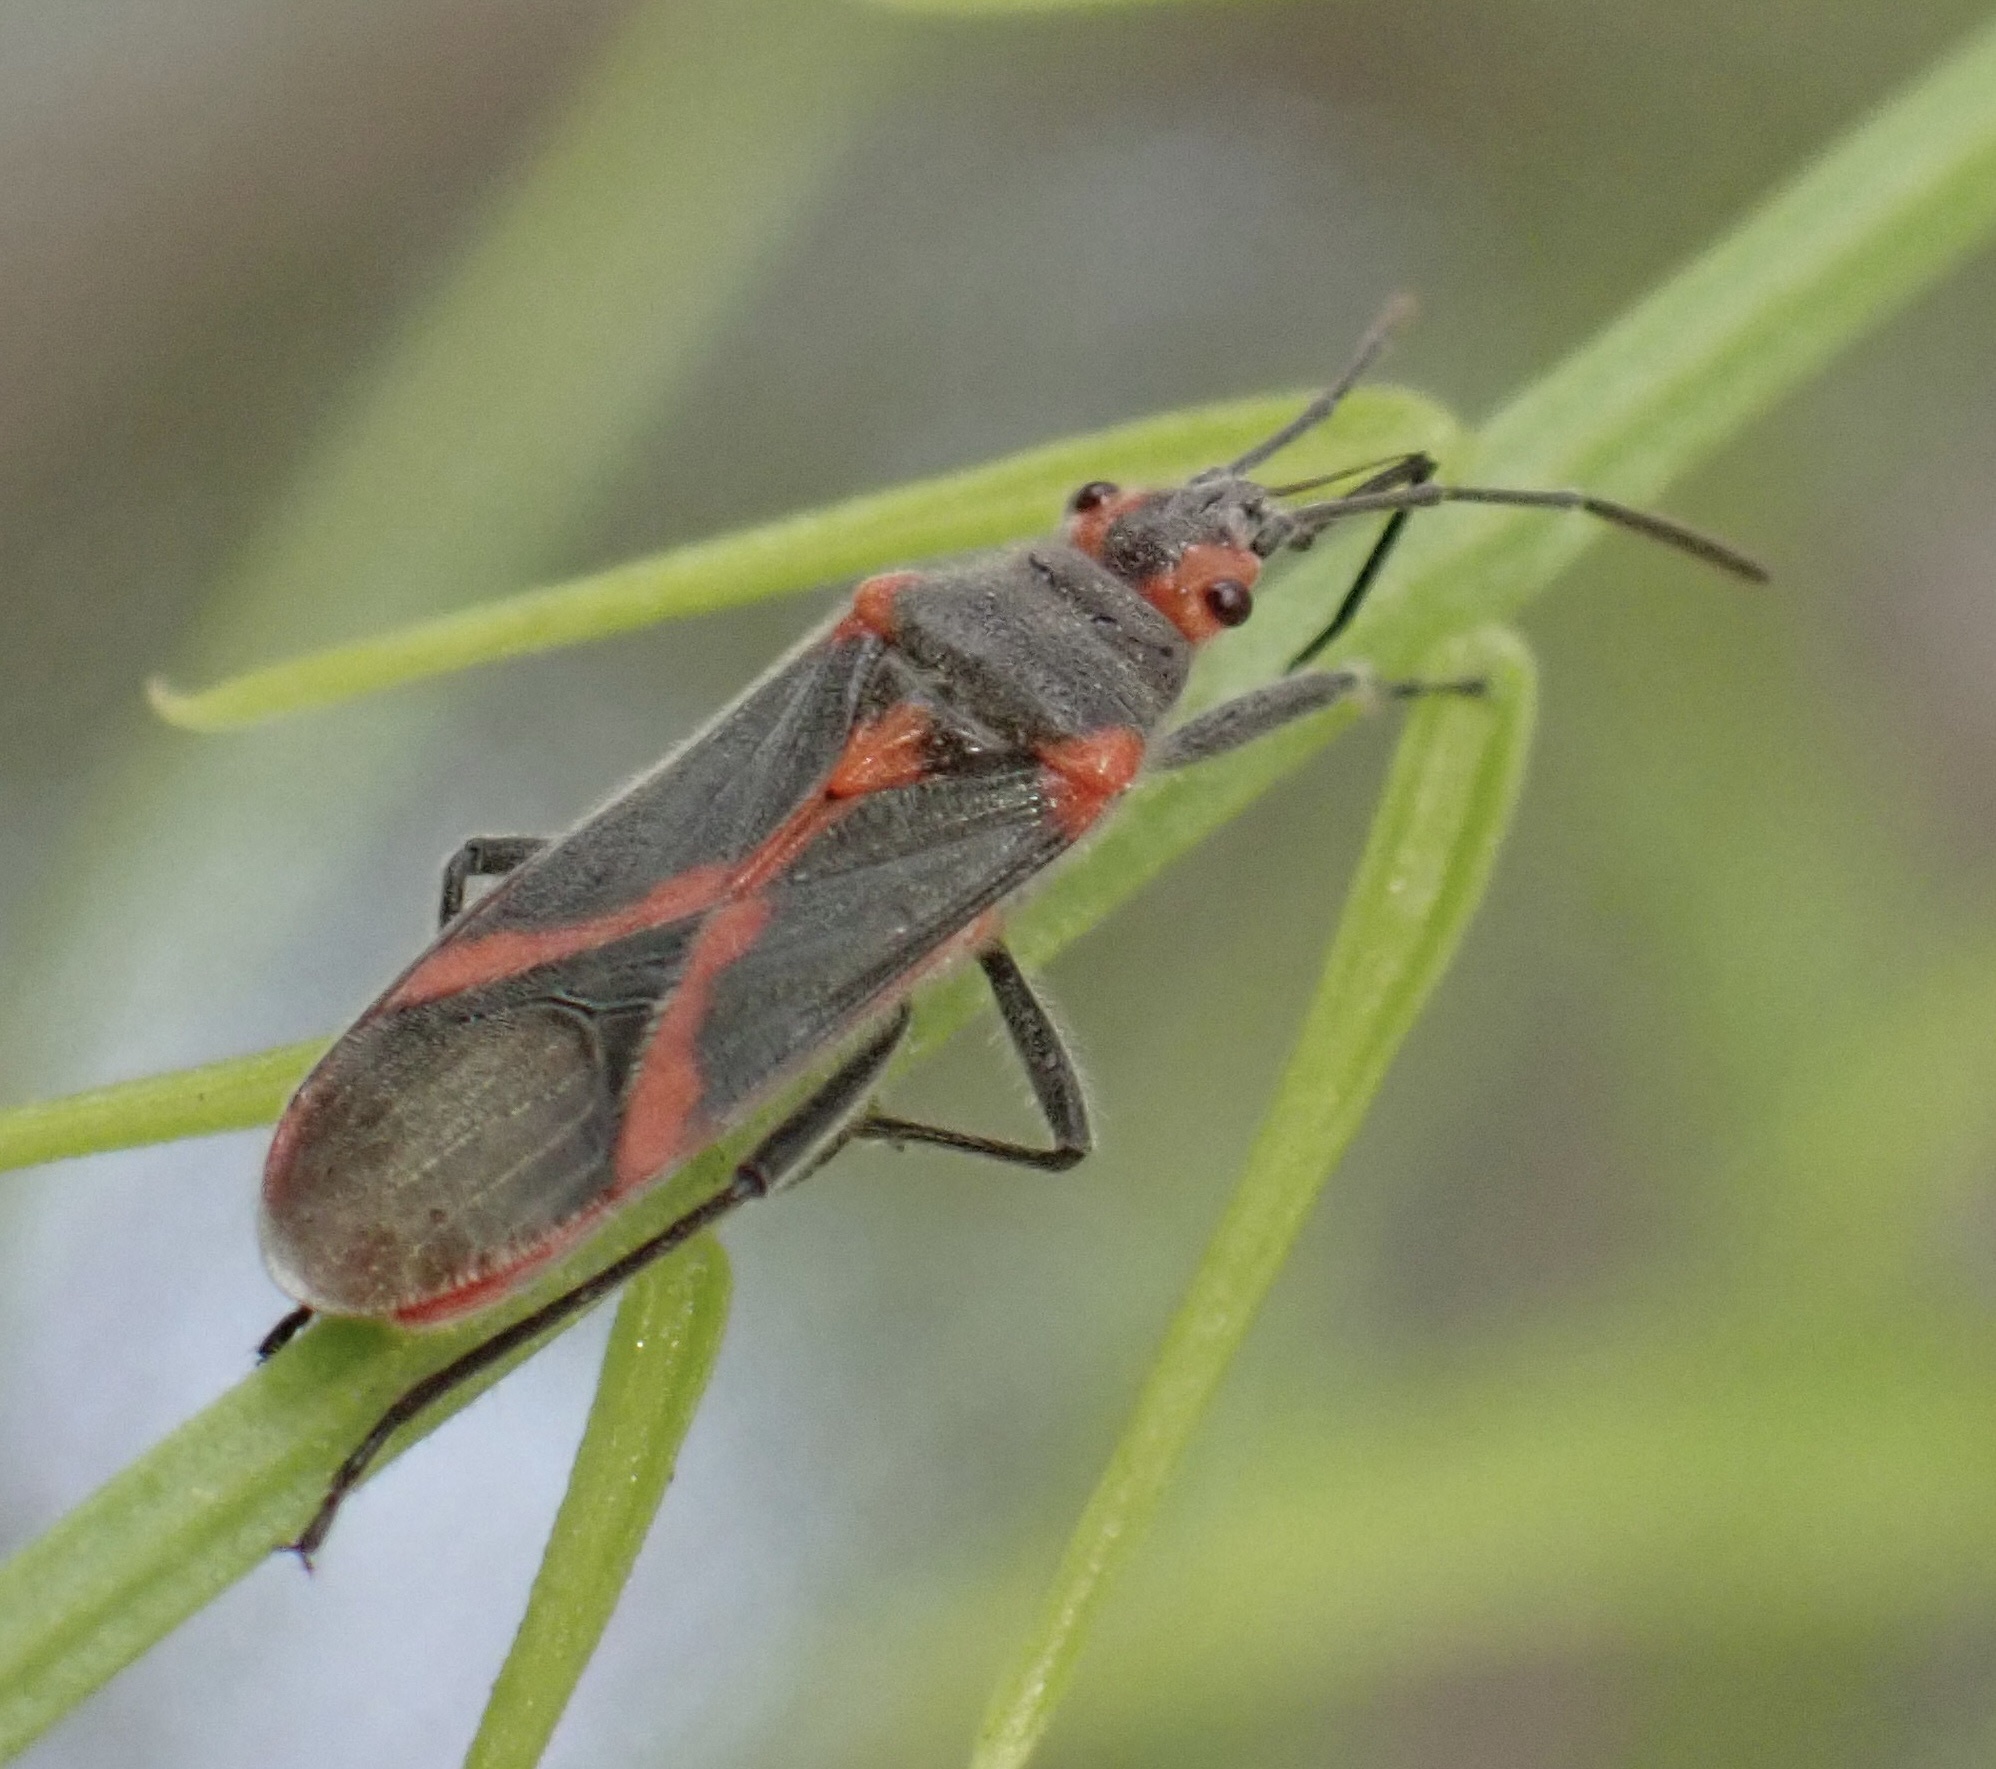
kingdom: Animalia
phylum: Arthropoda
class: Insecta
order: Hemiptera
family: Lygaeidae
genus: Caenocoris
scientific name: Caenocoris nerii
